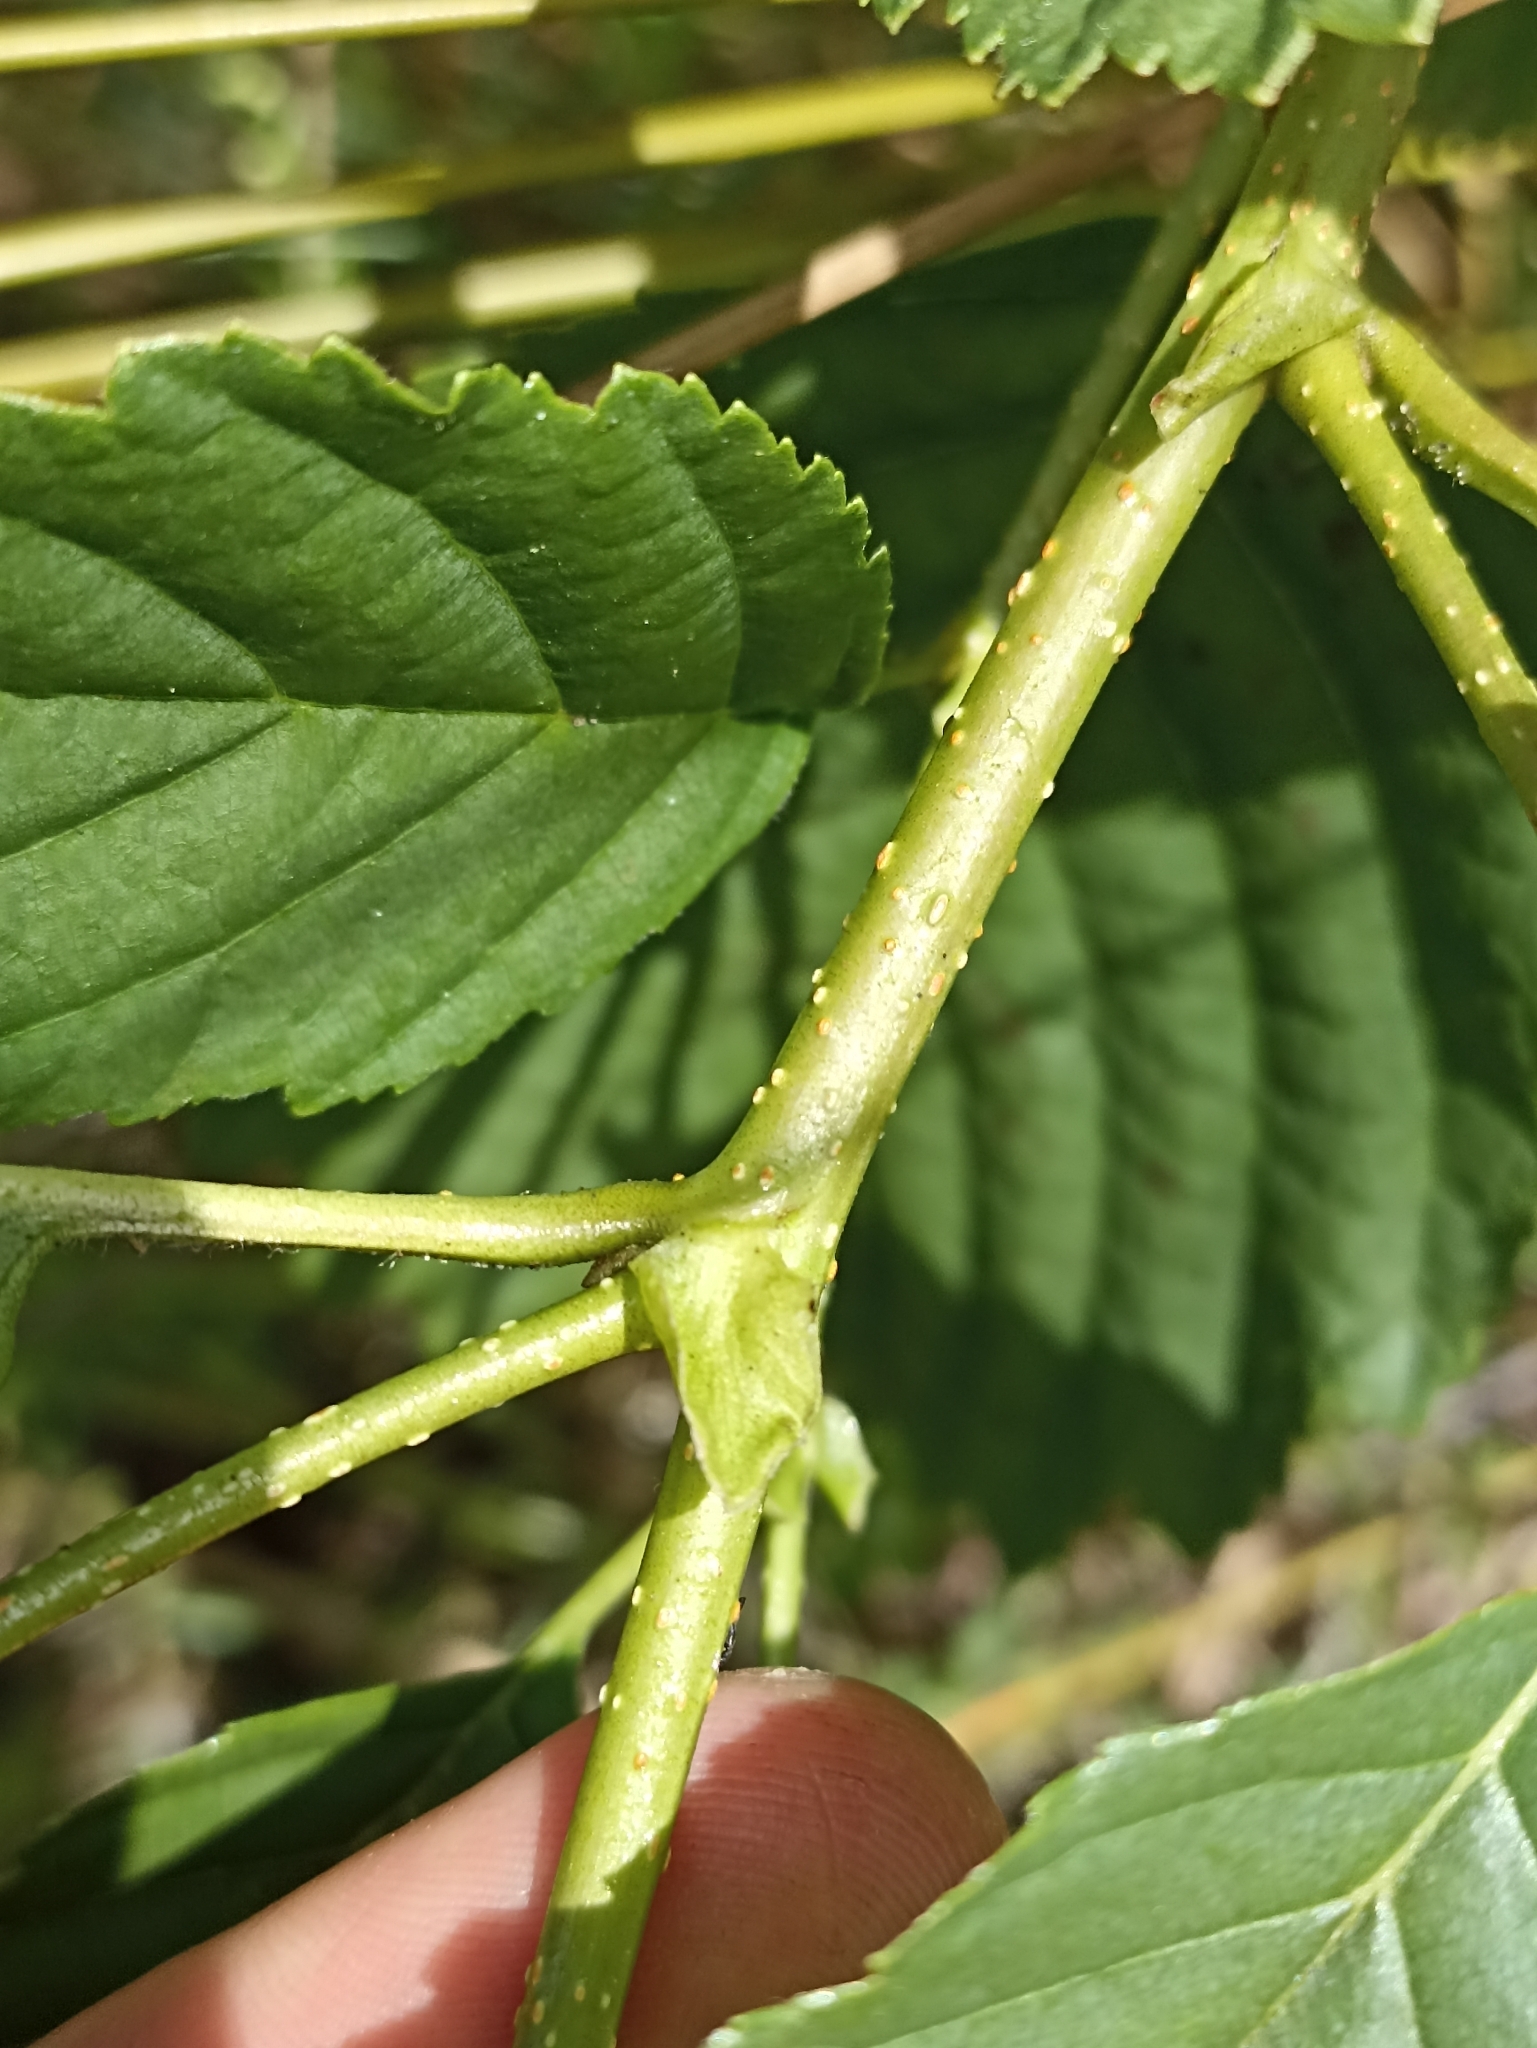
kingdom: Plantae
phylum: Tracheophyta
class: Magnoliopsida
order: Fagales
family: Betulaceae
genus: Alnus
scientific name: Alnus glutinosa
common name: Black alder
